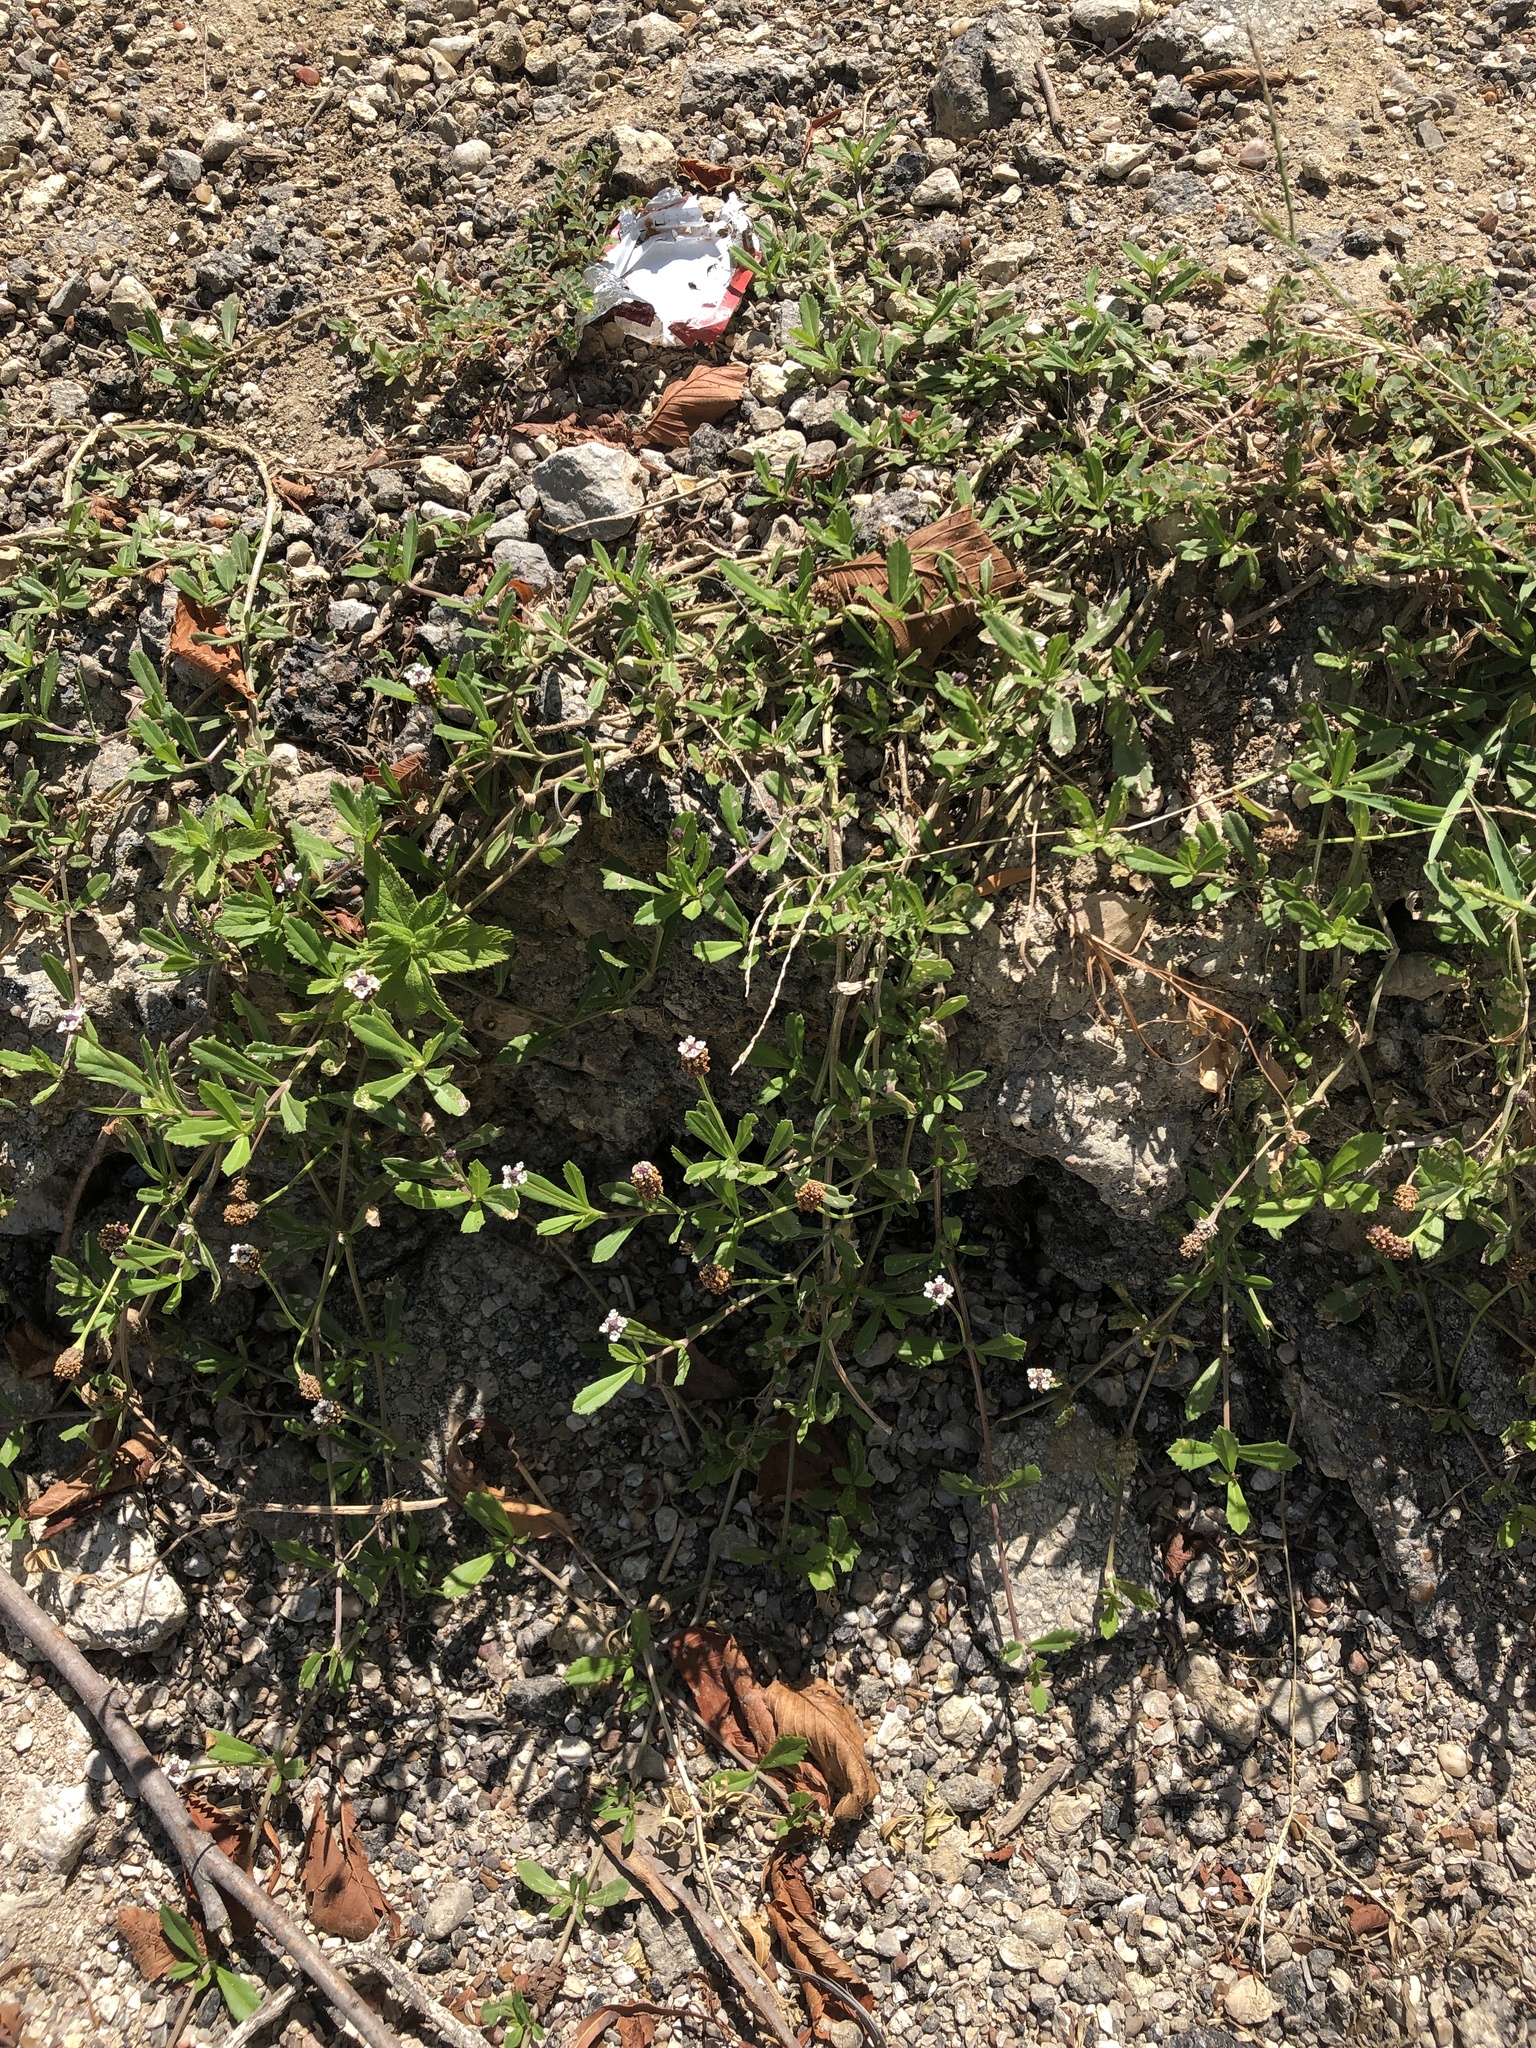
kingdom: Plantae
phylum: Tracheophyta
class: Magnoliopsida
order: Lamiales
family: Verbenaceae
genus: Phyla
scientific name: Phyla nodiflora
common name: Frogfruit
